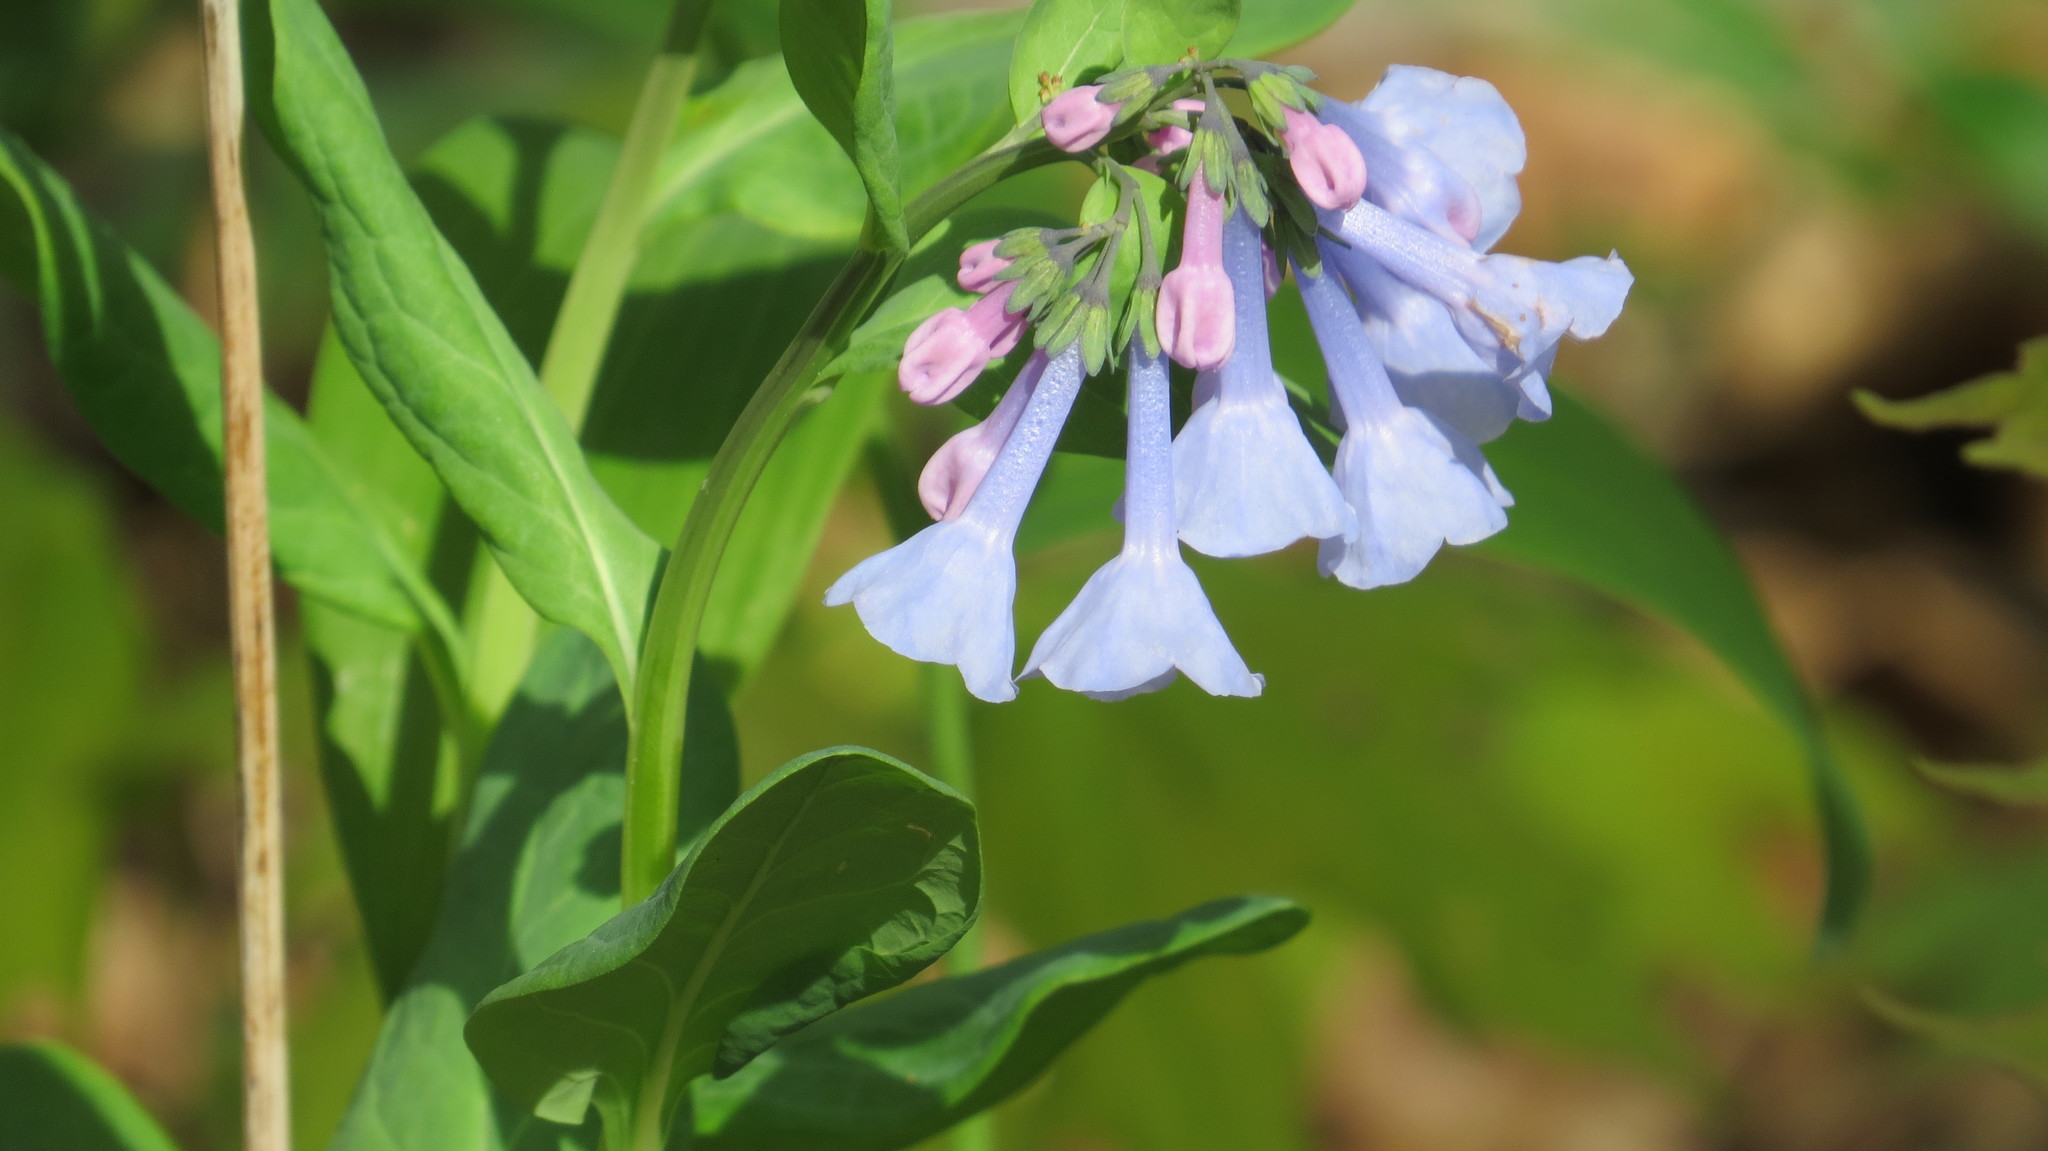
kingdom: Plantae
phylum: Tracheophyta
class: Magnoliopsida
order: Boraginales
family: Boraginaceae
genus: Mertensia
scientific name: Mertensia virginica
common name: Virginia bluebells
